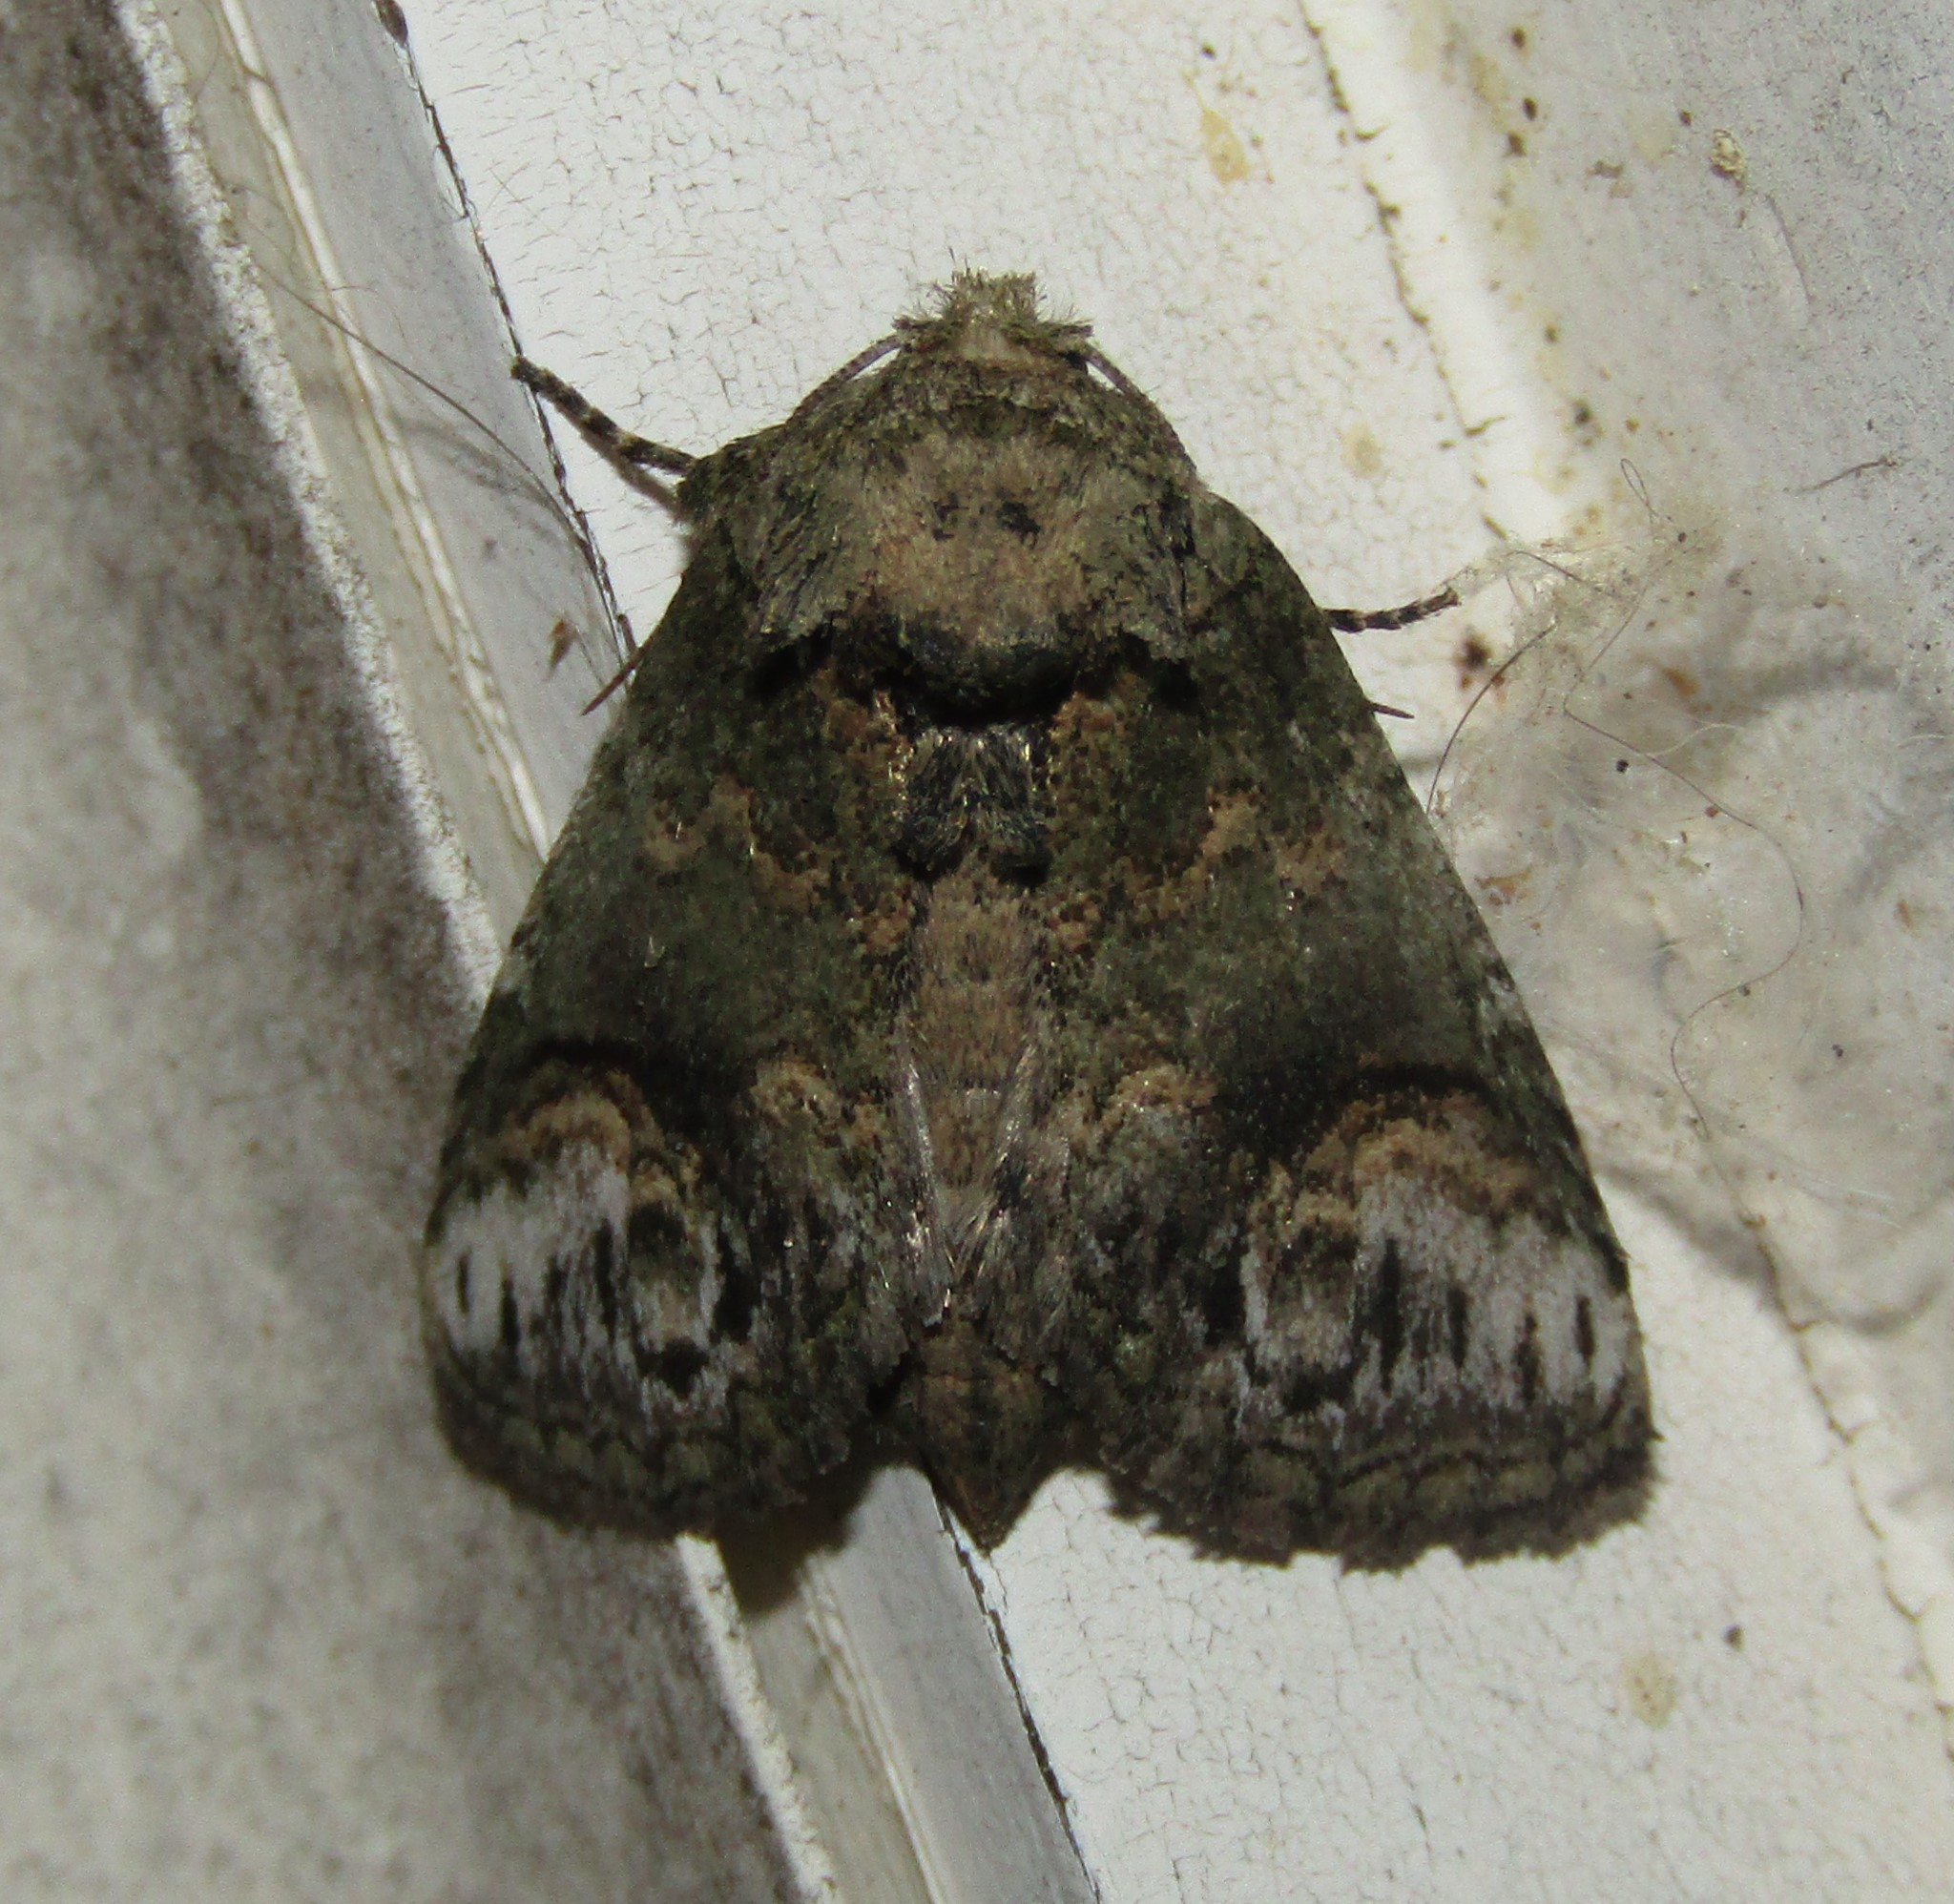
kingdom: Animalia
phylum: Arthropoda
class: Insecta
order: Lepidoptera
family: Notodontidae
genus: Rifargia
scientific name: Rifargia
